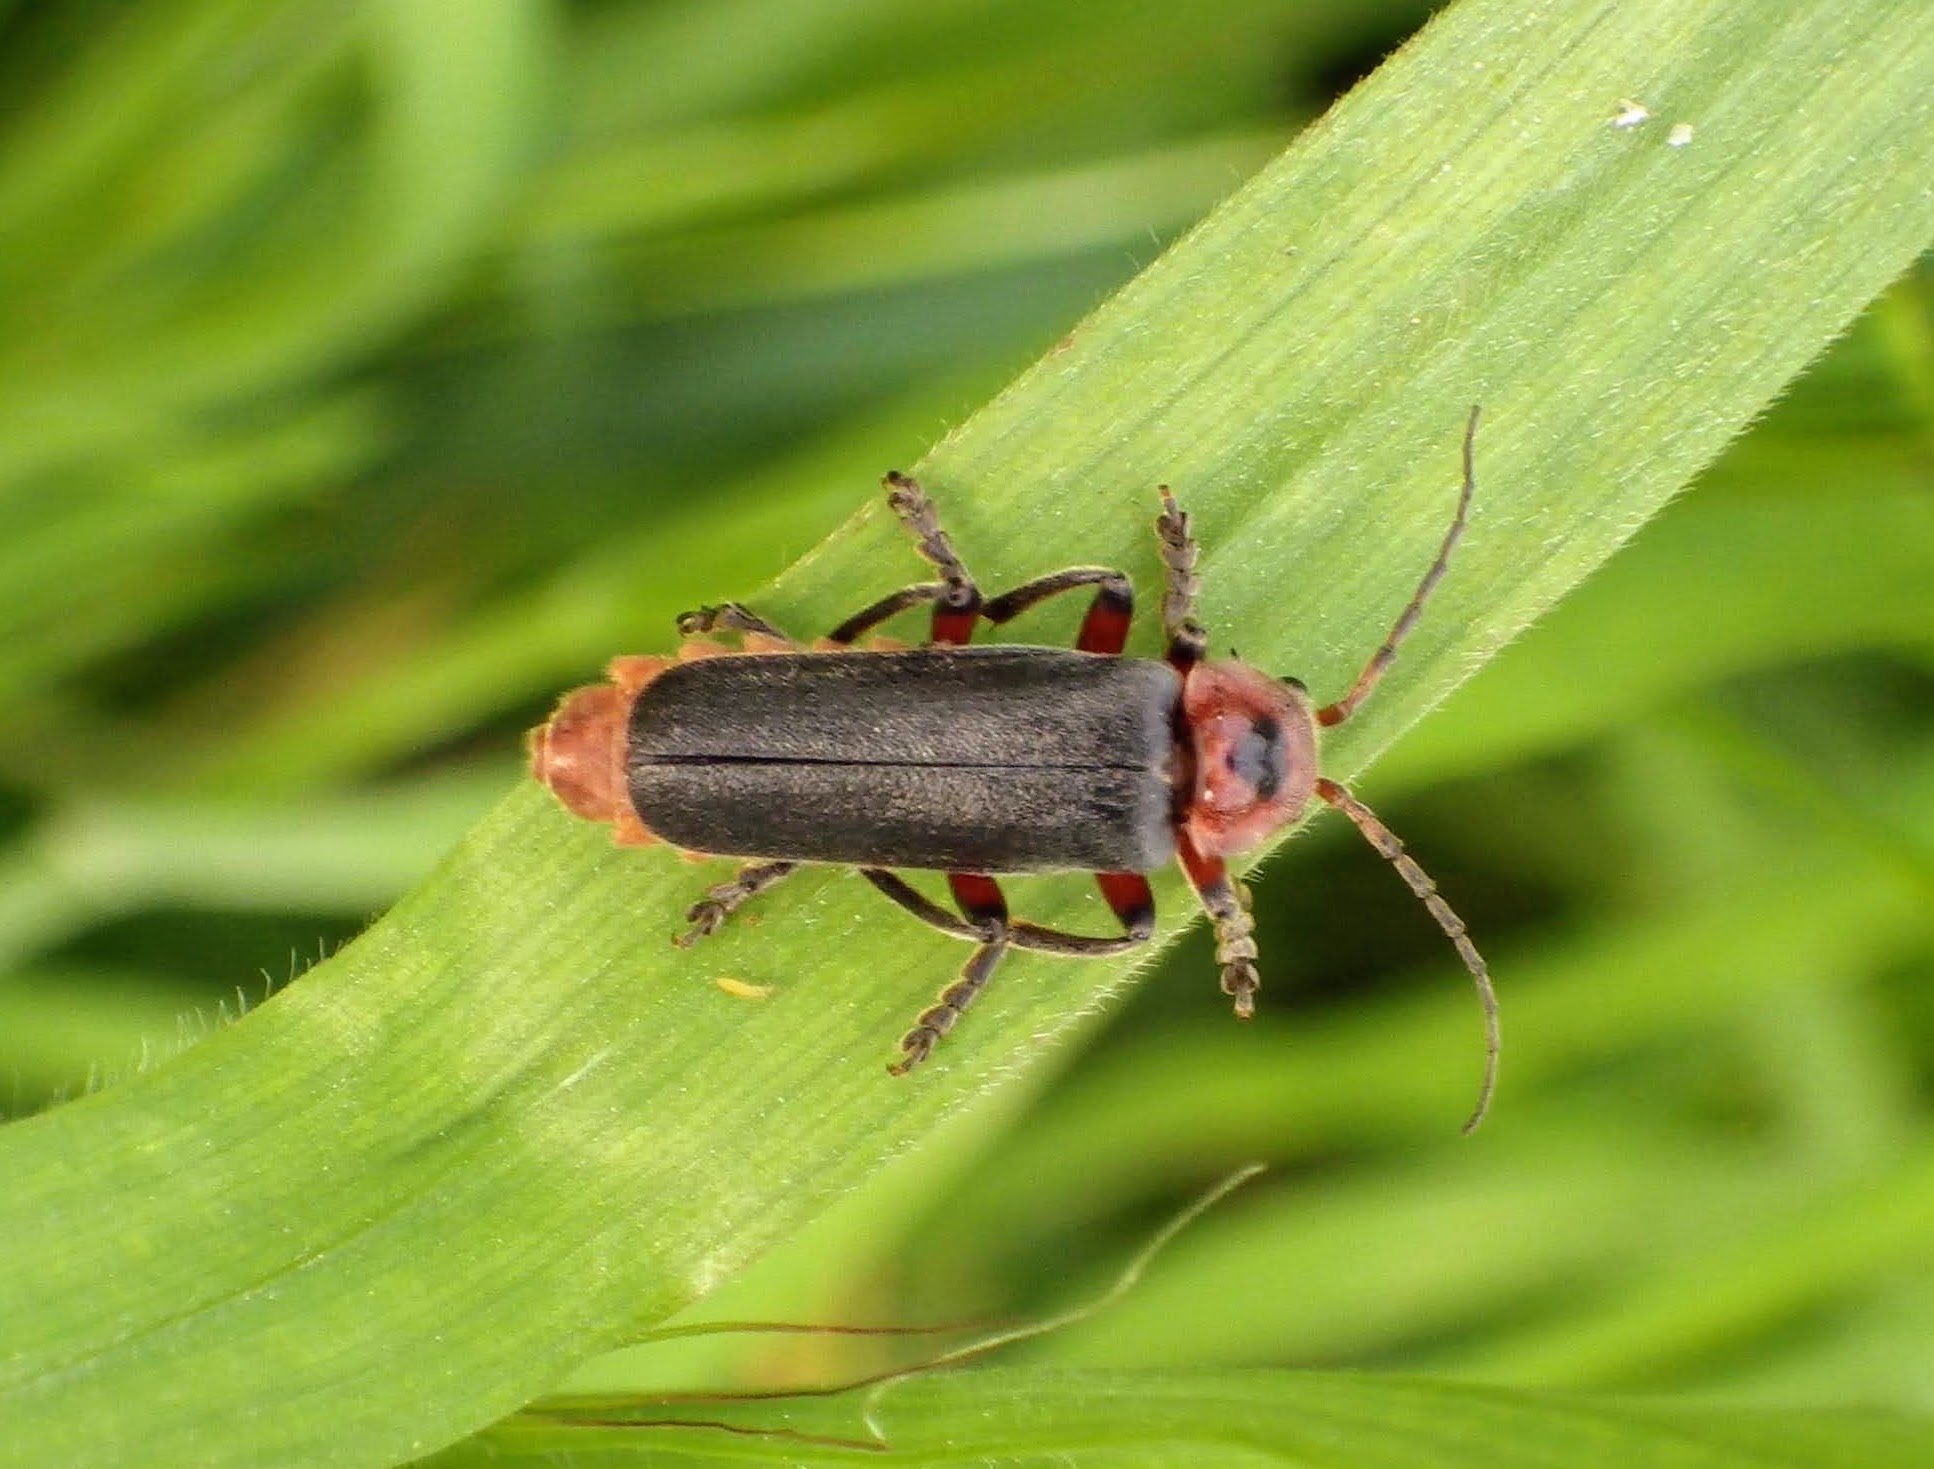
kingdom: Animalia
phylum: Arthropoda
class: Insecta
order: Coleoptera
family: Cantharidae
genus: Cantharis
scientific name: Cantharis rustica
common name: Soldier beetle
